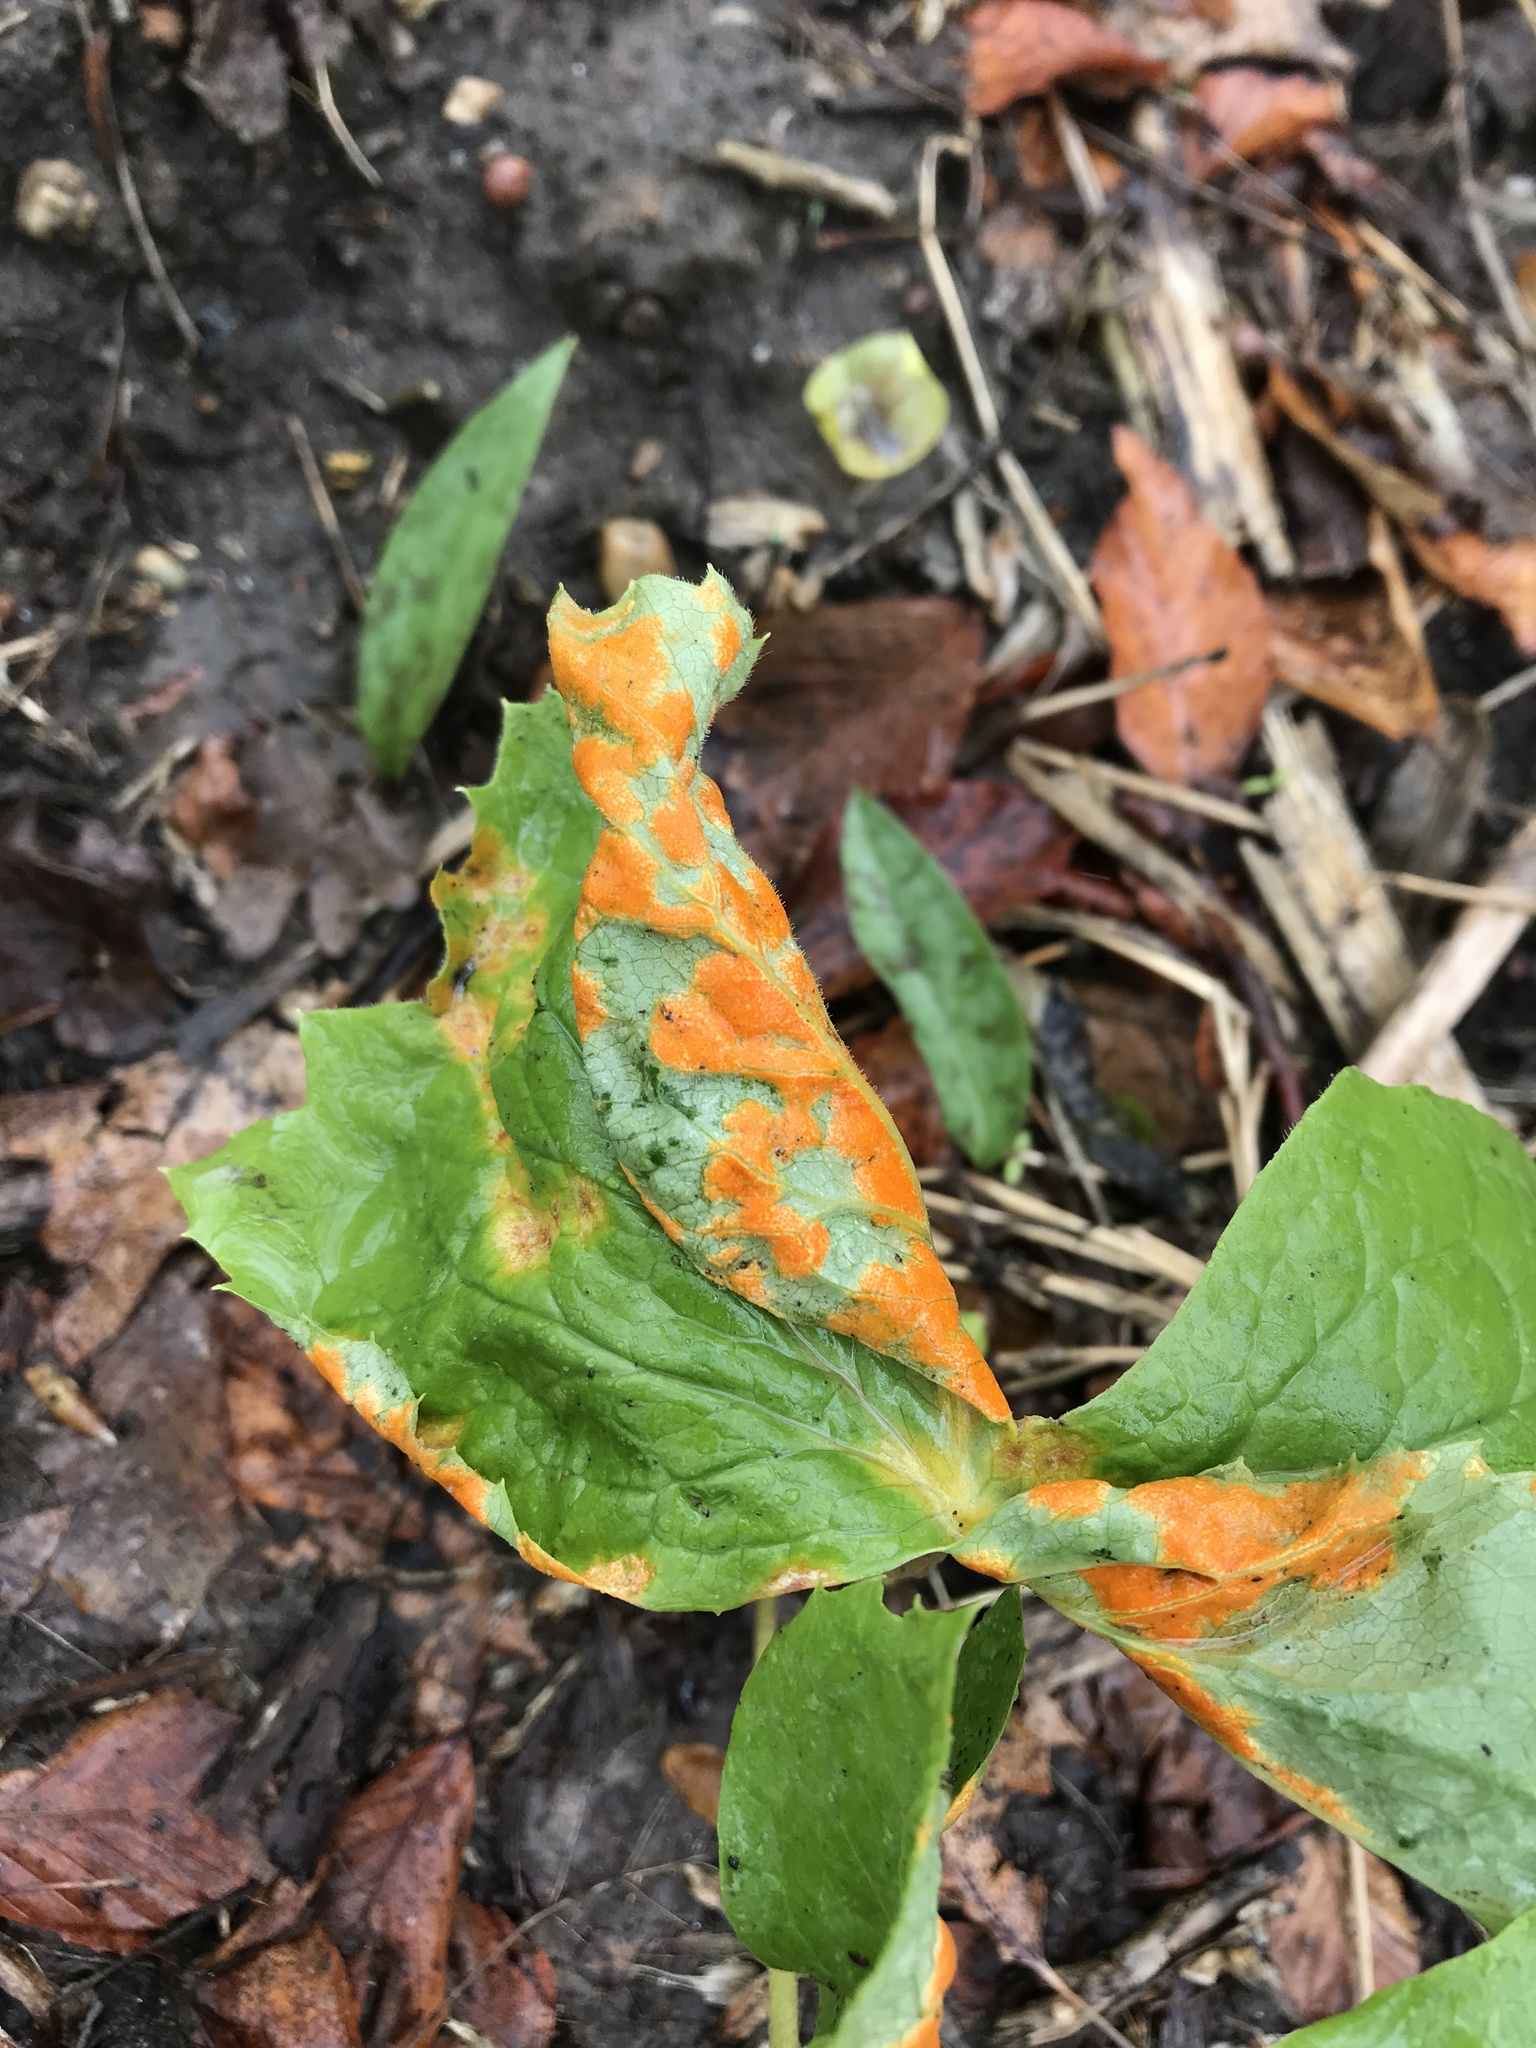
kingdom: Fungi
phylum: Basidiomycota
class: Pucciniomycetes
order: Pucciniales
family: Pucciniaceae
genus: Puccinia
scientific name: Puccinia podophylli
